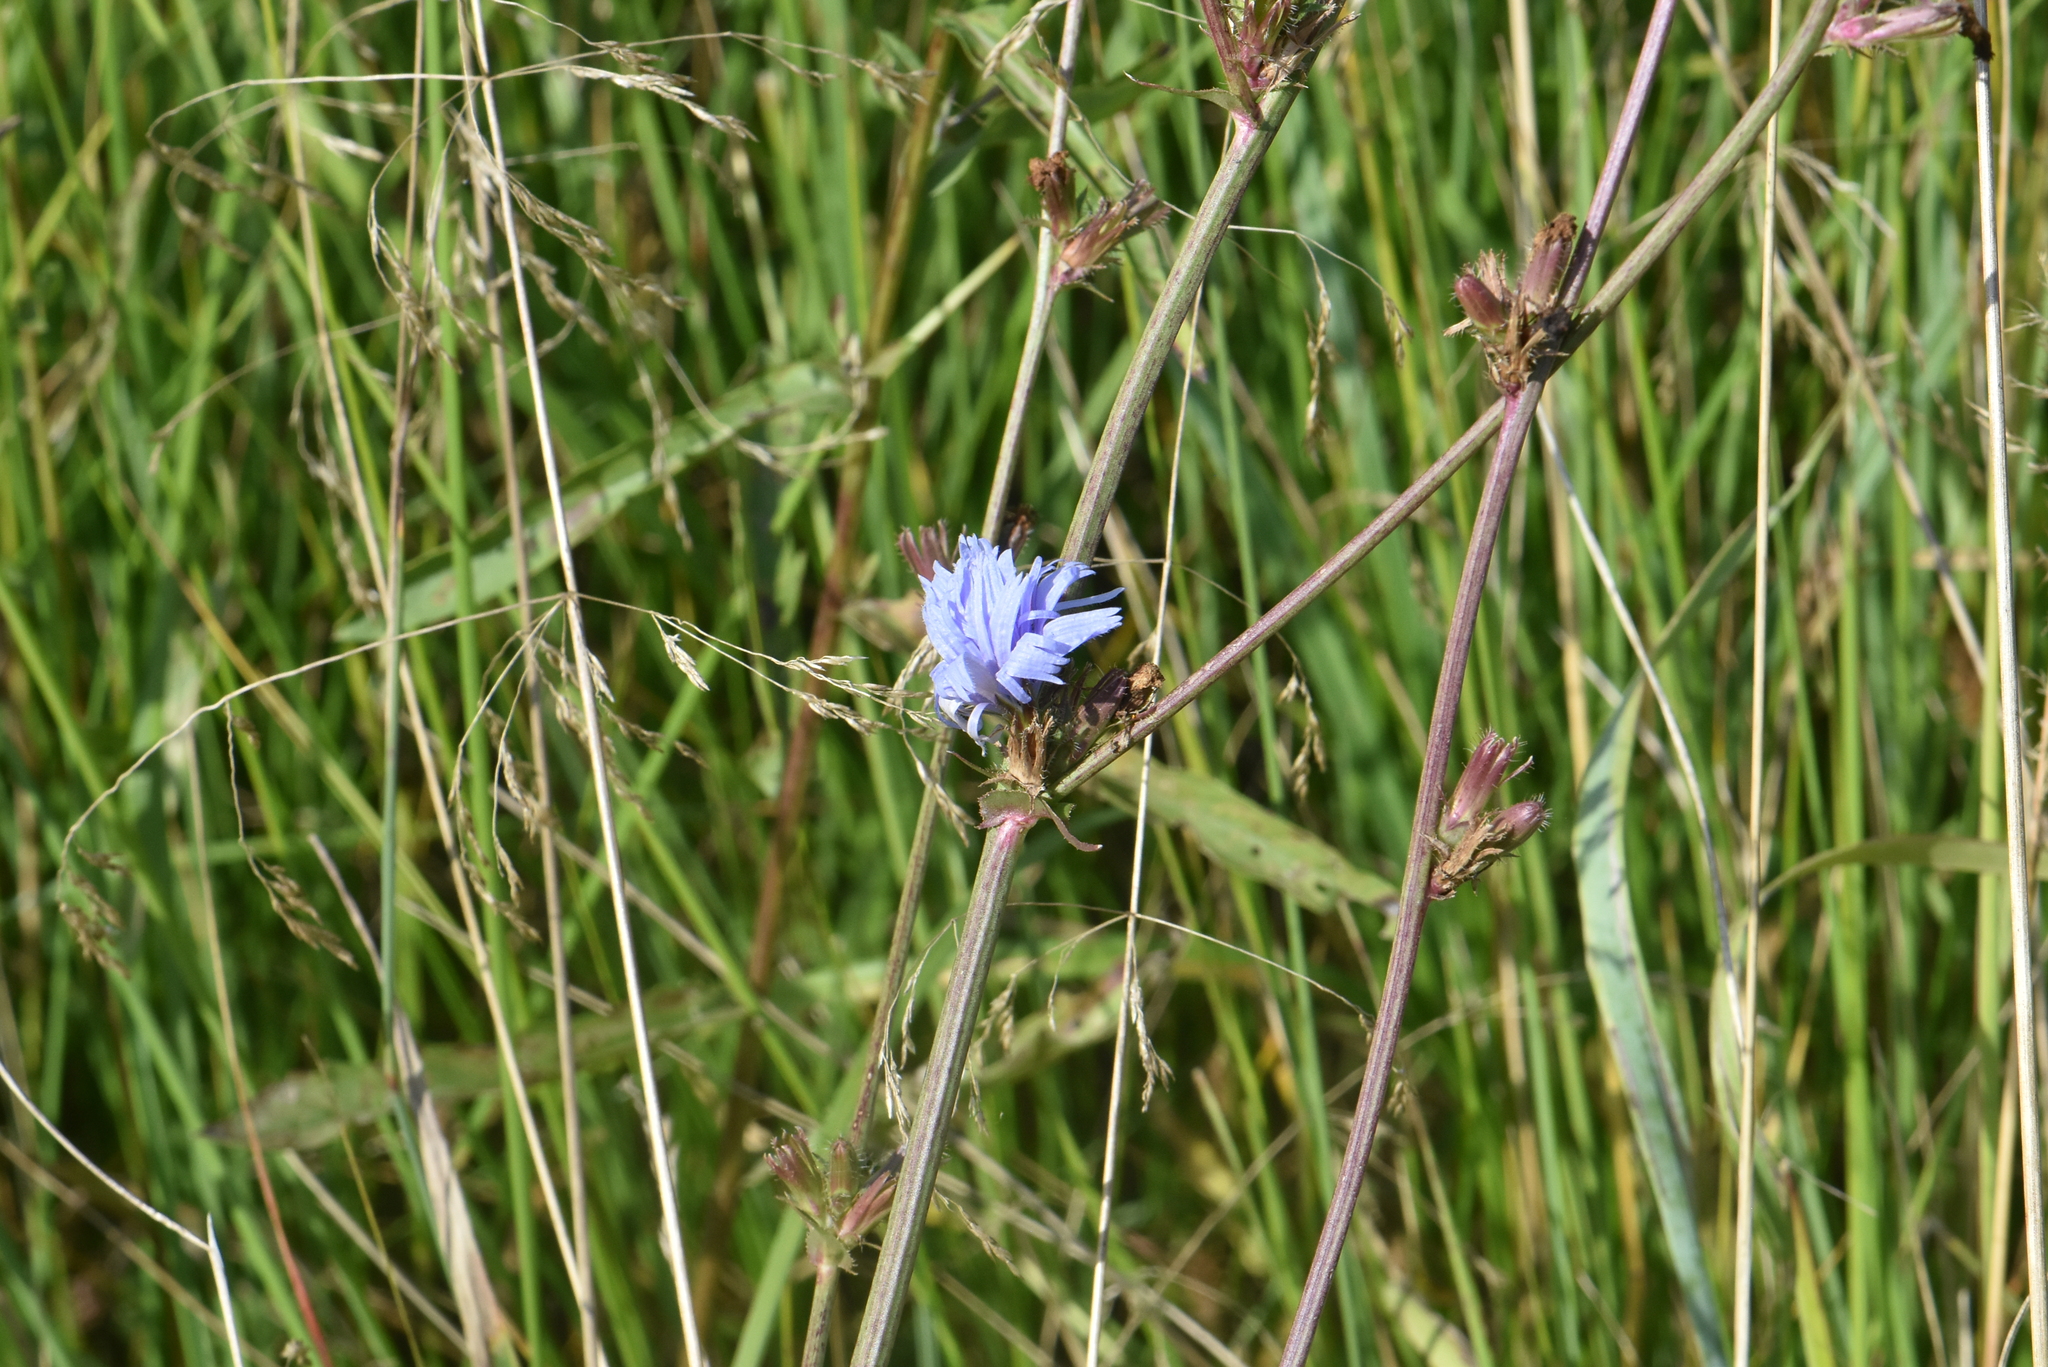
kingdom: Plantae
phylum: Tracheophyta
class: Magnoliopsida
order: Asterales
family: Asteraceae
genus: Cichorium
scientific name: Cichorium intybus
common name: Chicory
